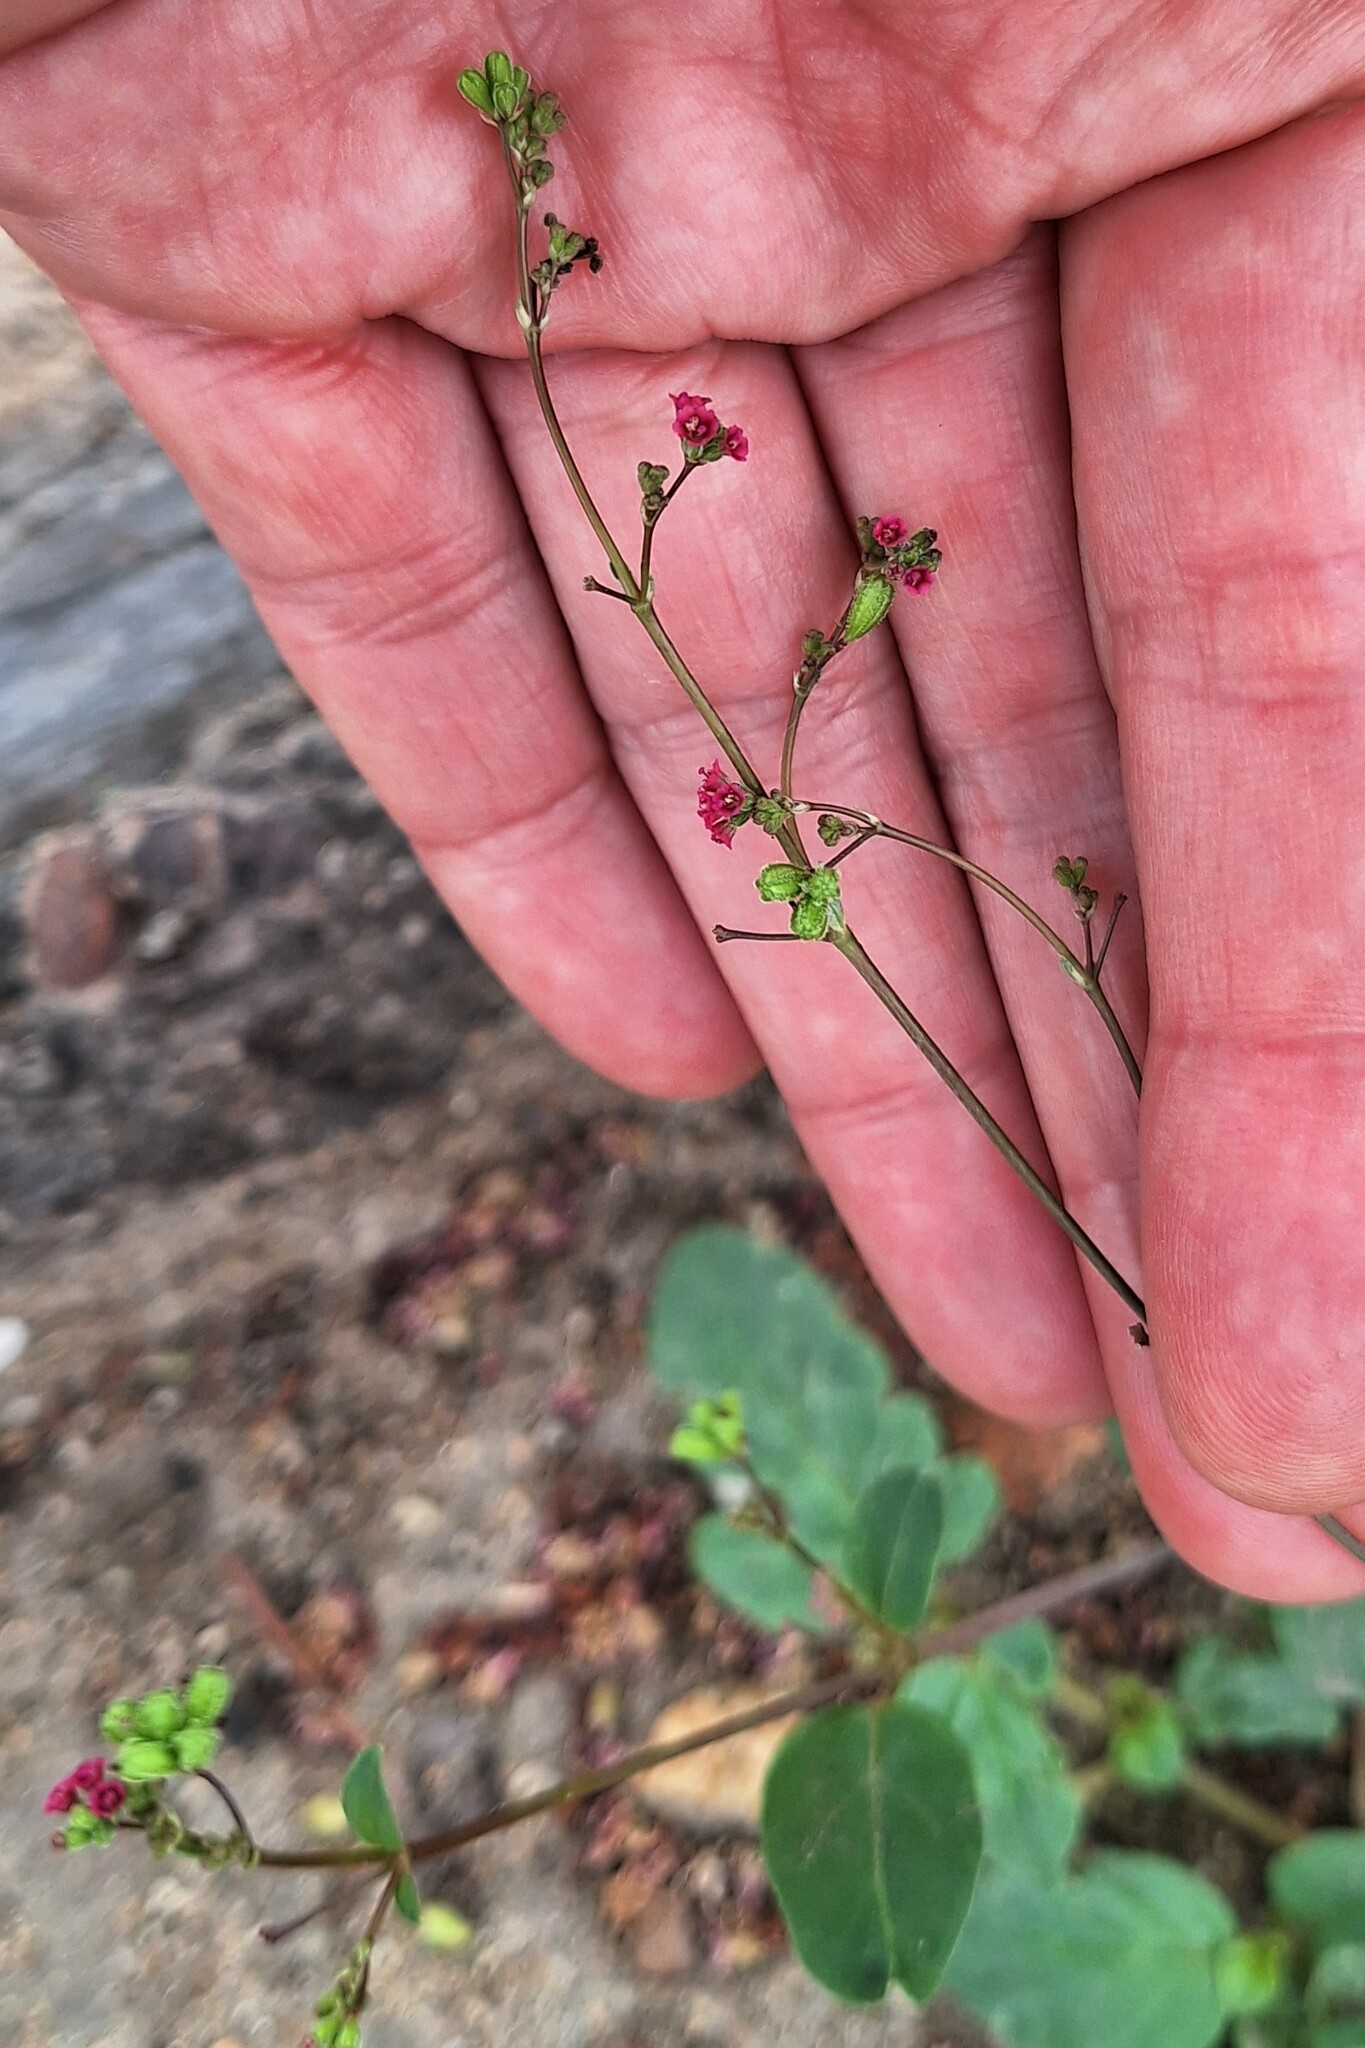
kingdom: Plantae
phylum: Tracheophyta
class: Magnoliopsida
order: Caryophyllales
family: Nyctaginaceae
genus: Boerhavia
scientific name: Boerhavia diffusa
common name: Red spiderling
